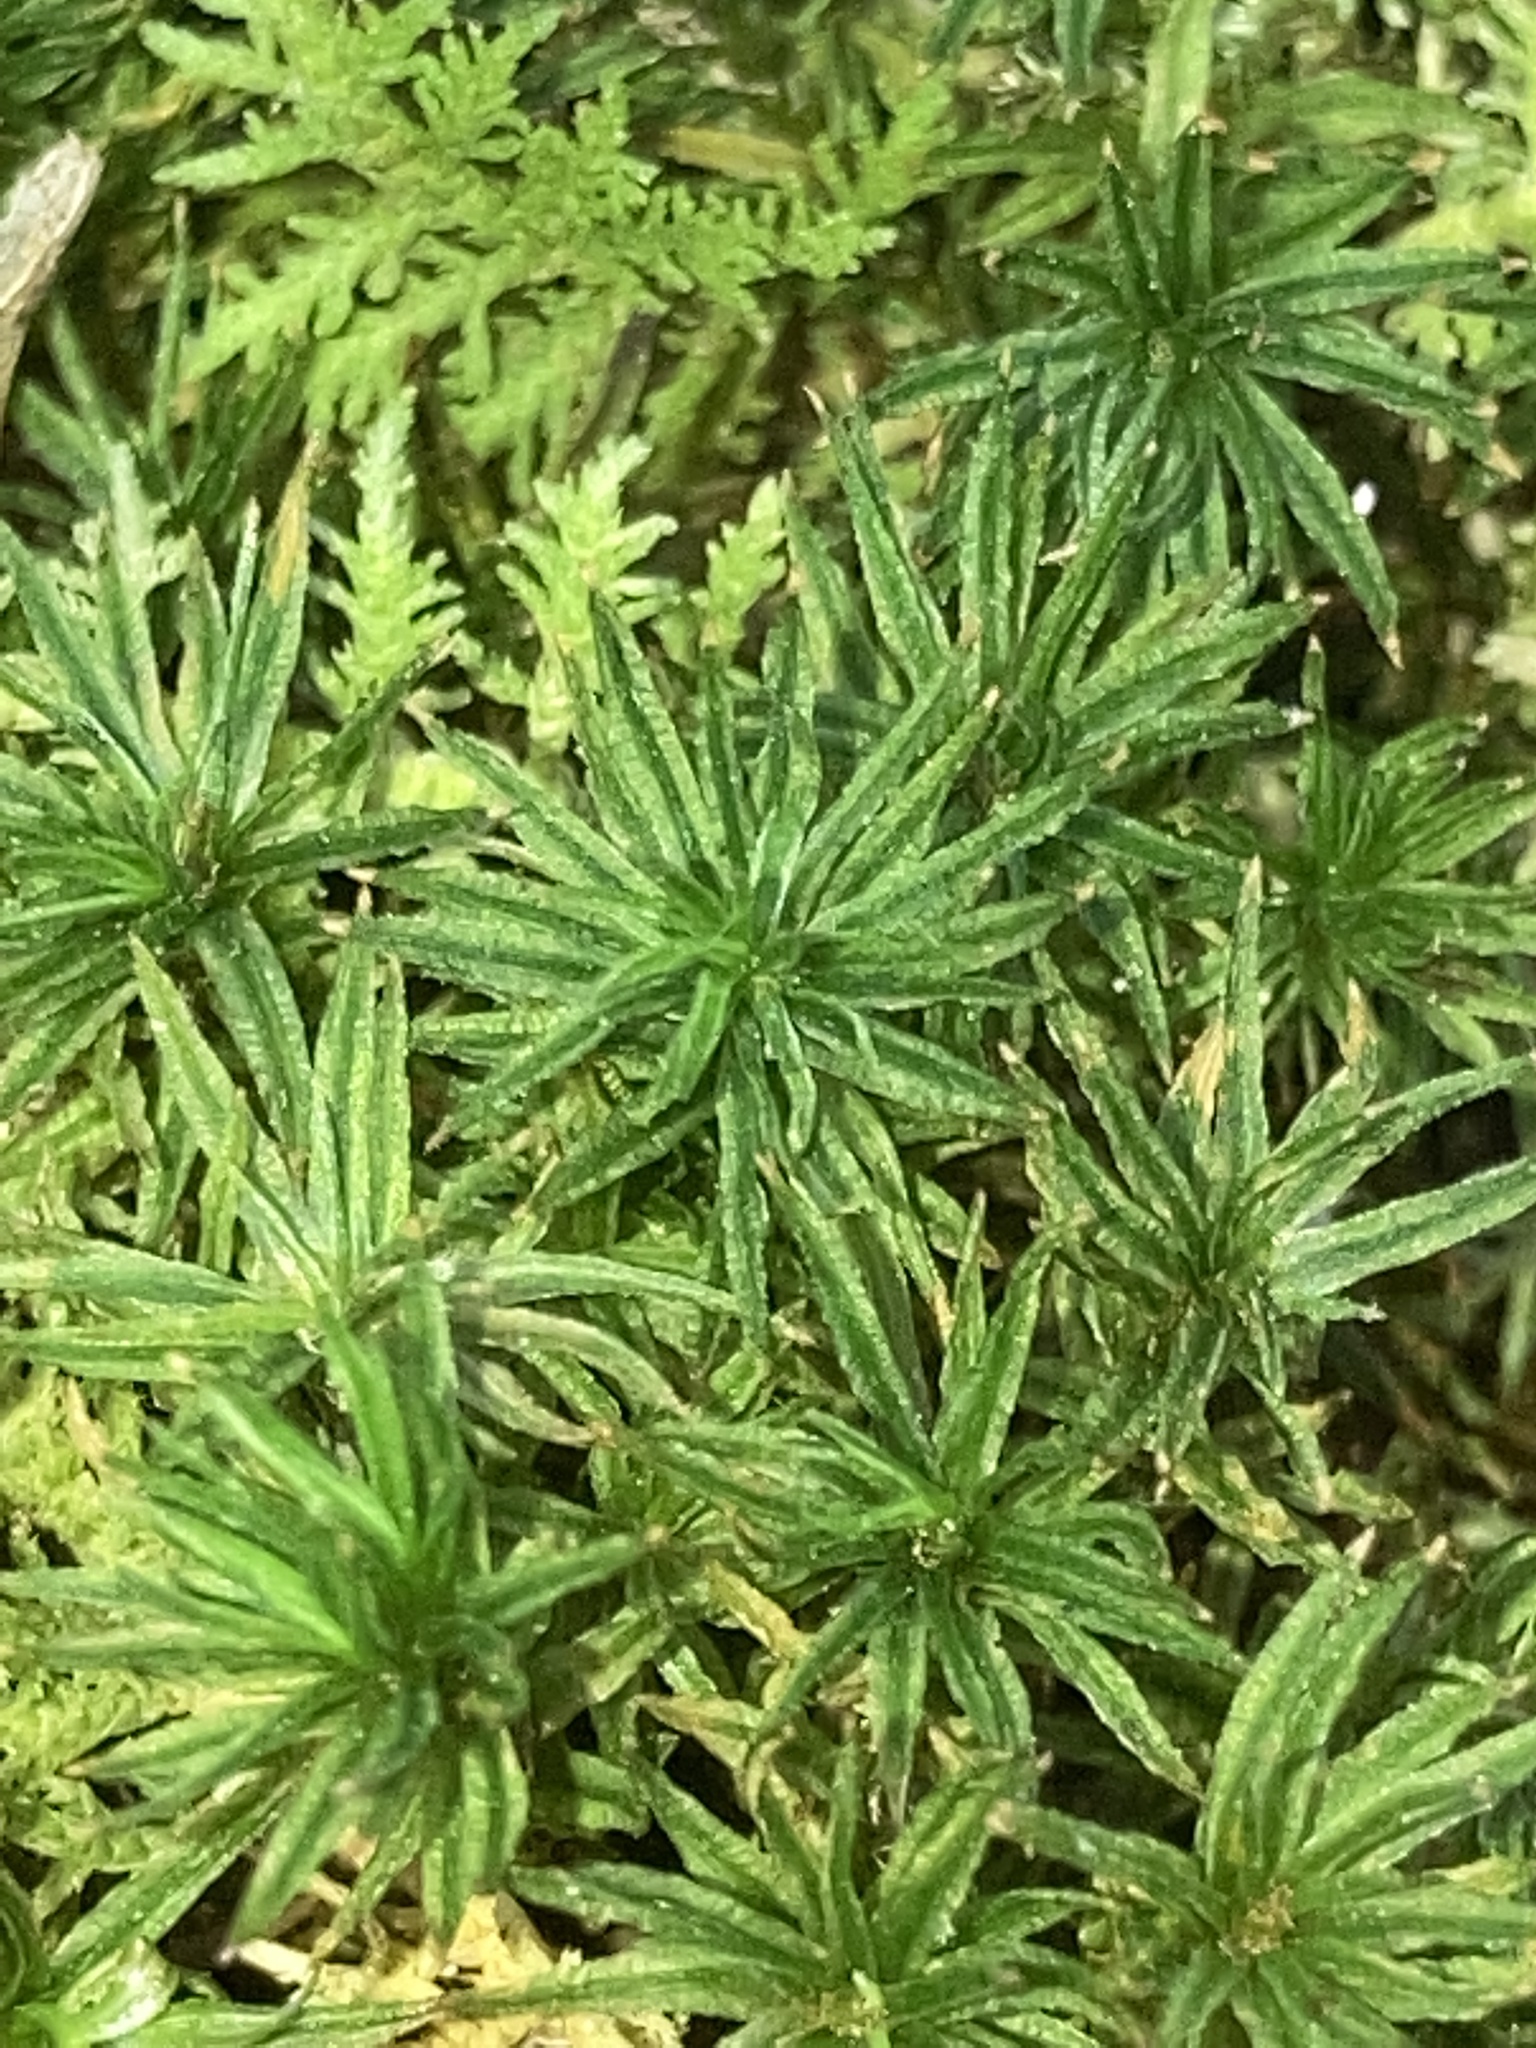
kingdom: Plantae
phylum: Bryophyta
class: Polytrichopsida
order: Polytrichales
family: Polytrichaceae
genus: Atrichum
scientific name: Atrichum angustatum
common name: Lesser smoothcap
